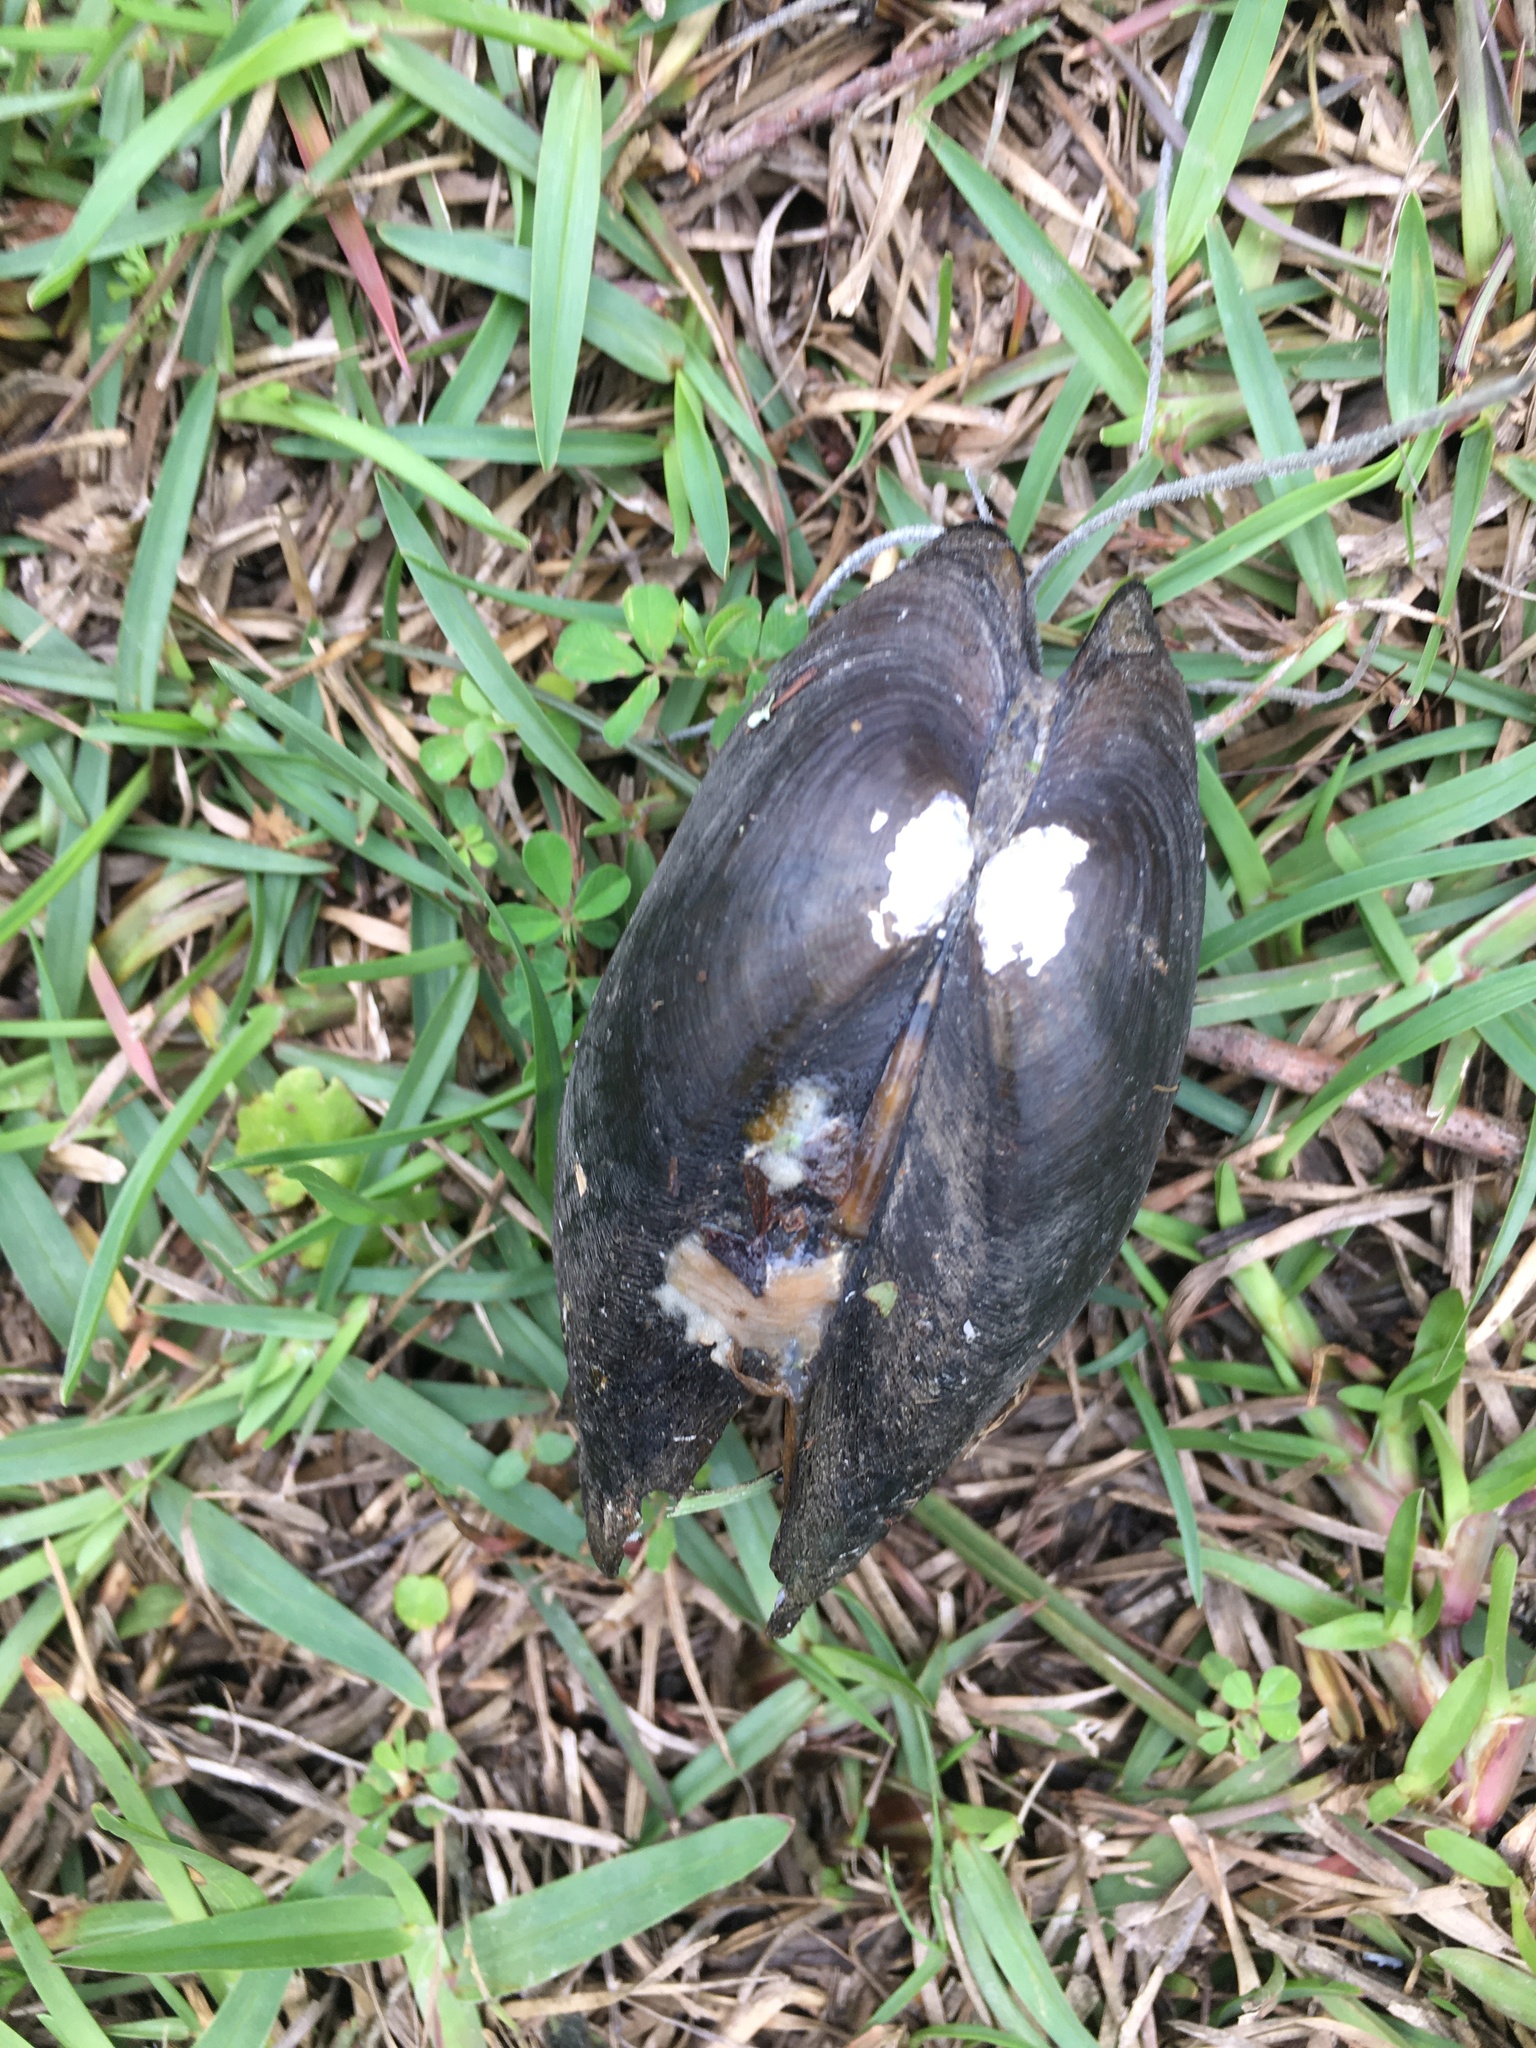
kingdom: Animalia
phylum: Mollusca
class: Bivalvia
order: Unionida
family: Unionidae
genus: Sagittunio
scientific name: Sagittunio subrostratus
